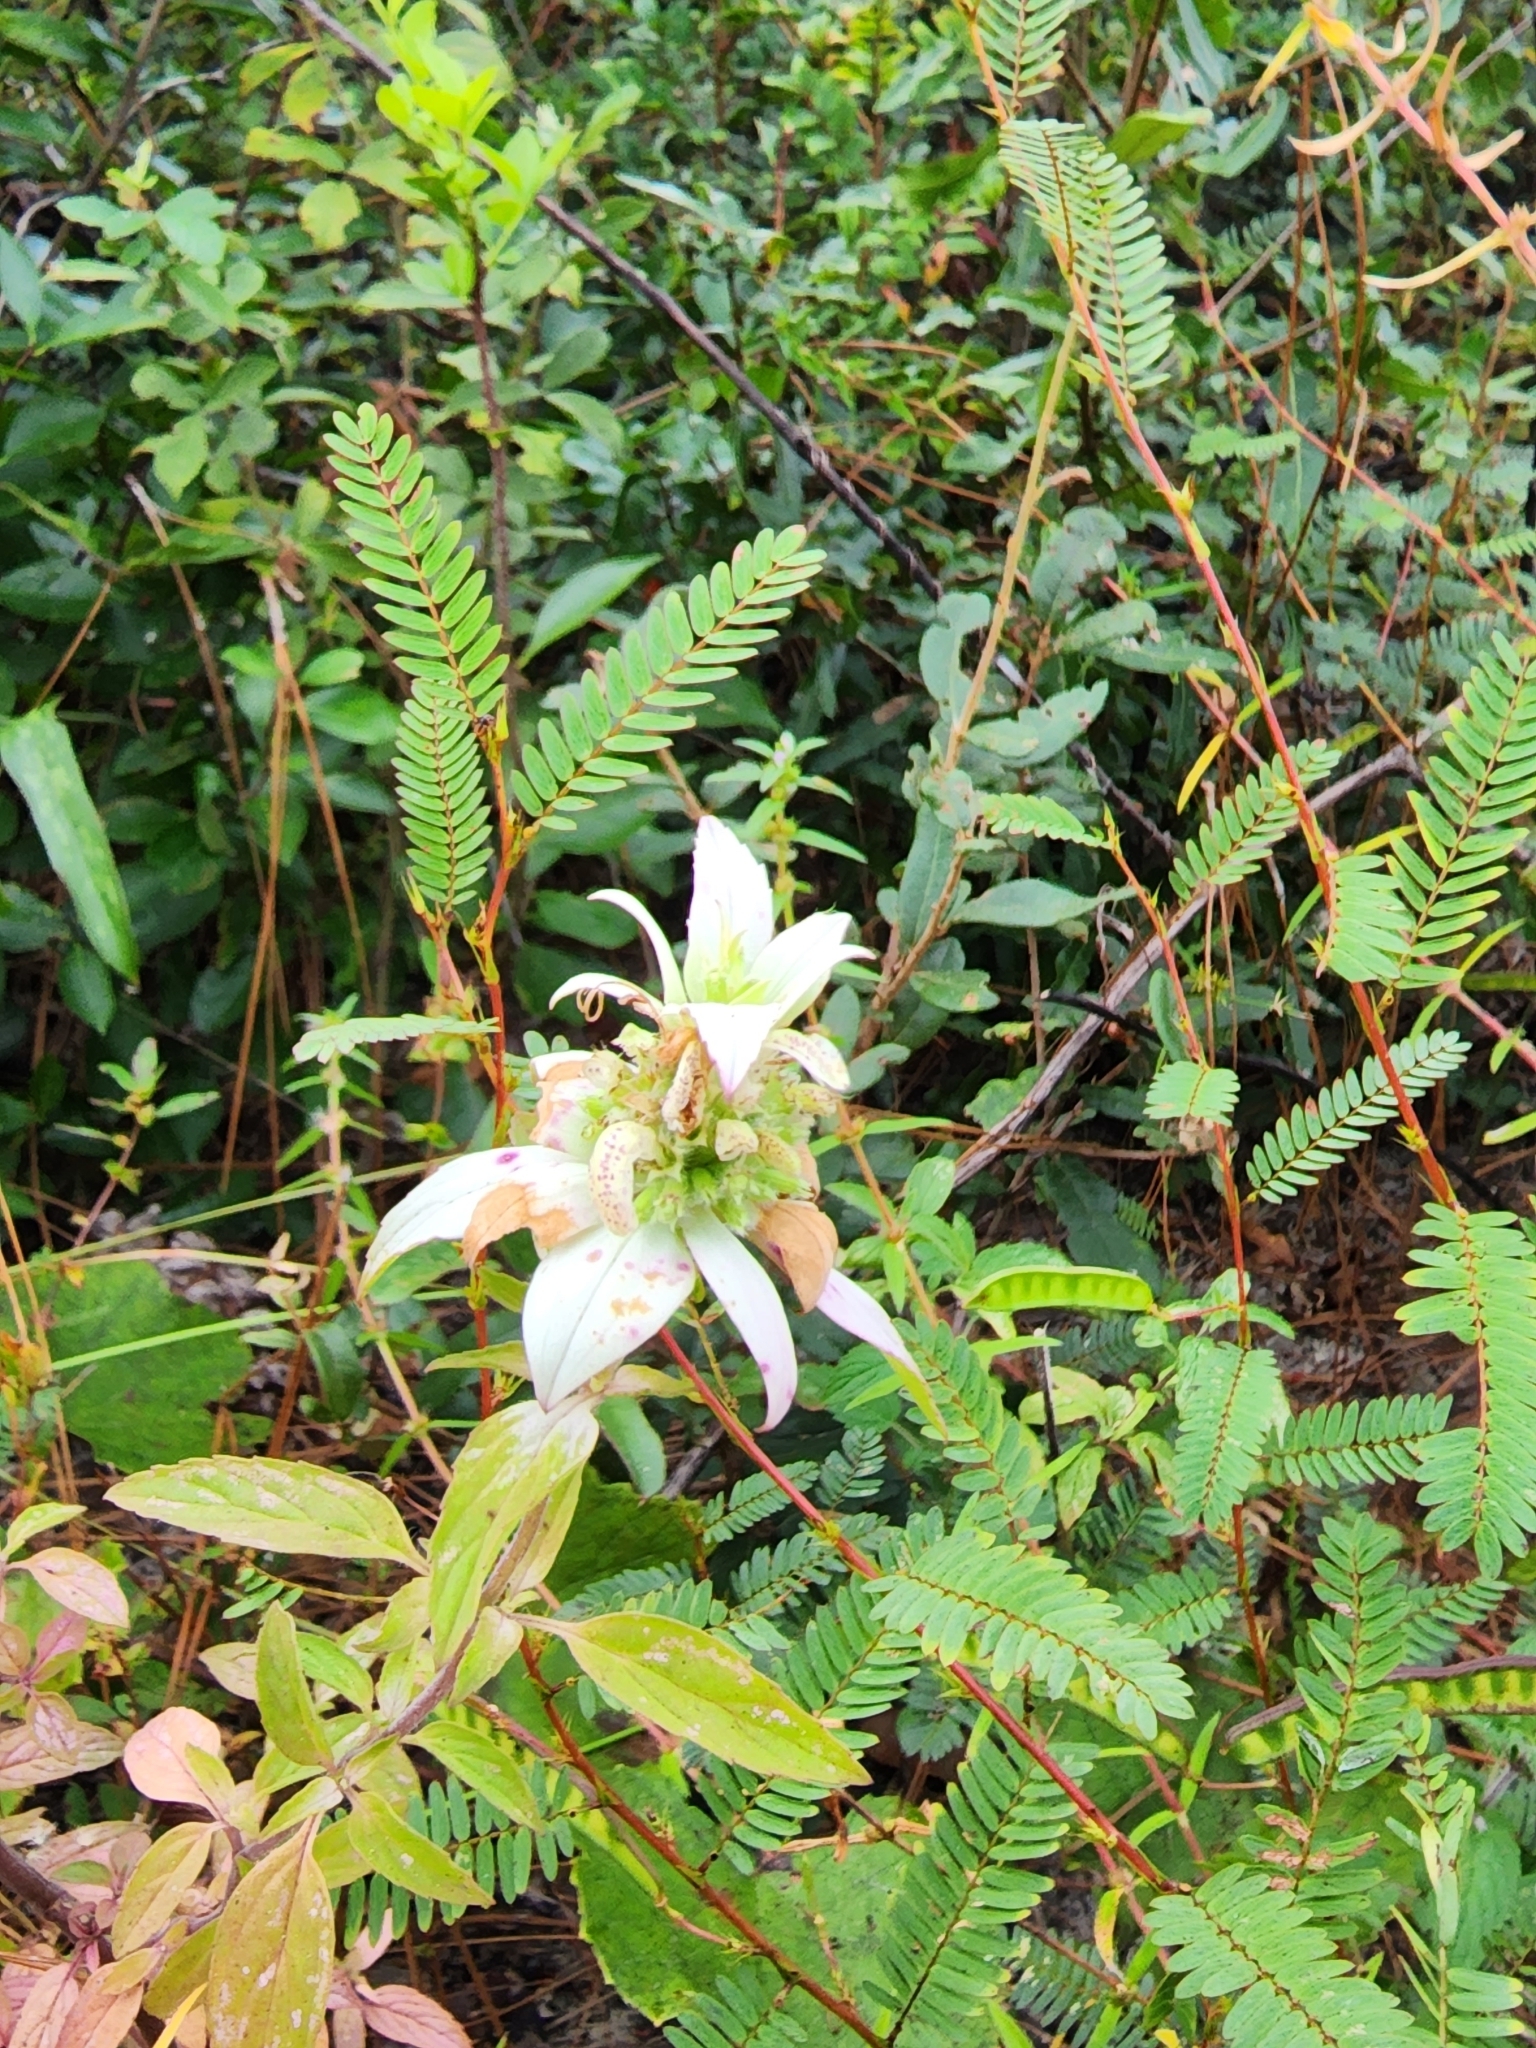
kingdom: Plantae
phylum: Tracheophyta
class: Magnoliopsida
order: Lamiales
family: Lamiaceae
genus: Monarda
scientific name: Monarda punctata
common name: Dotted monarda
